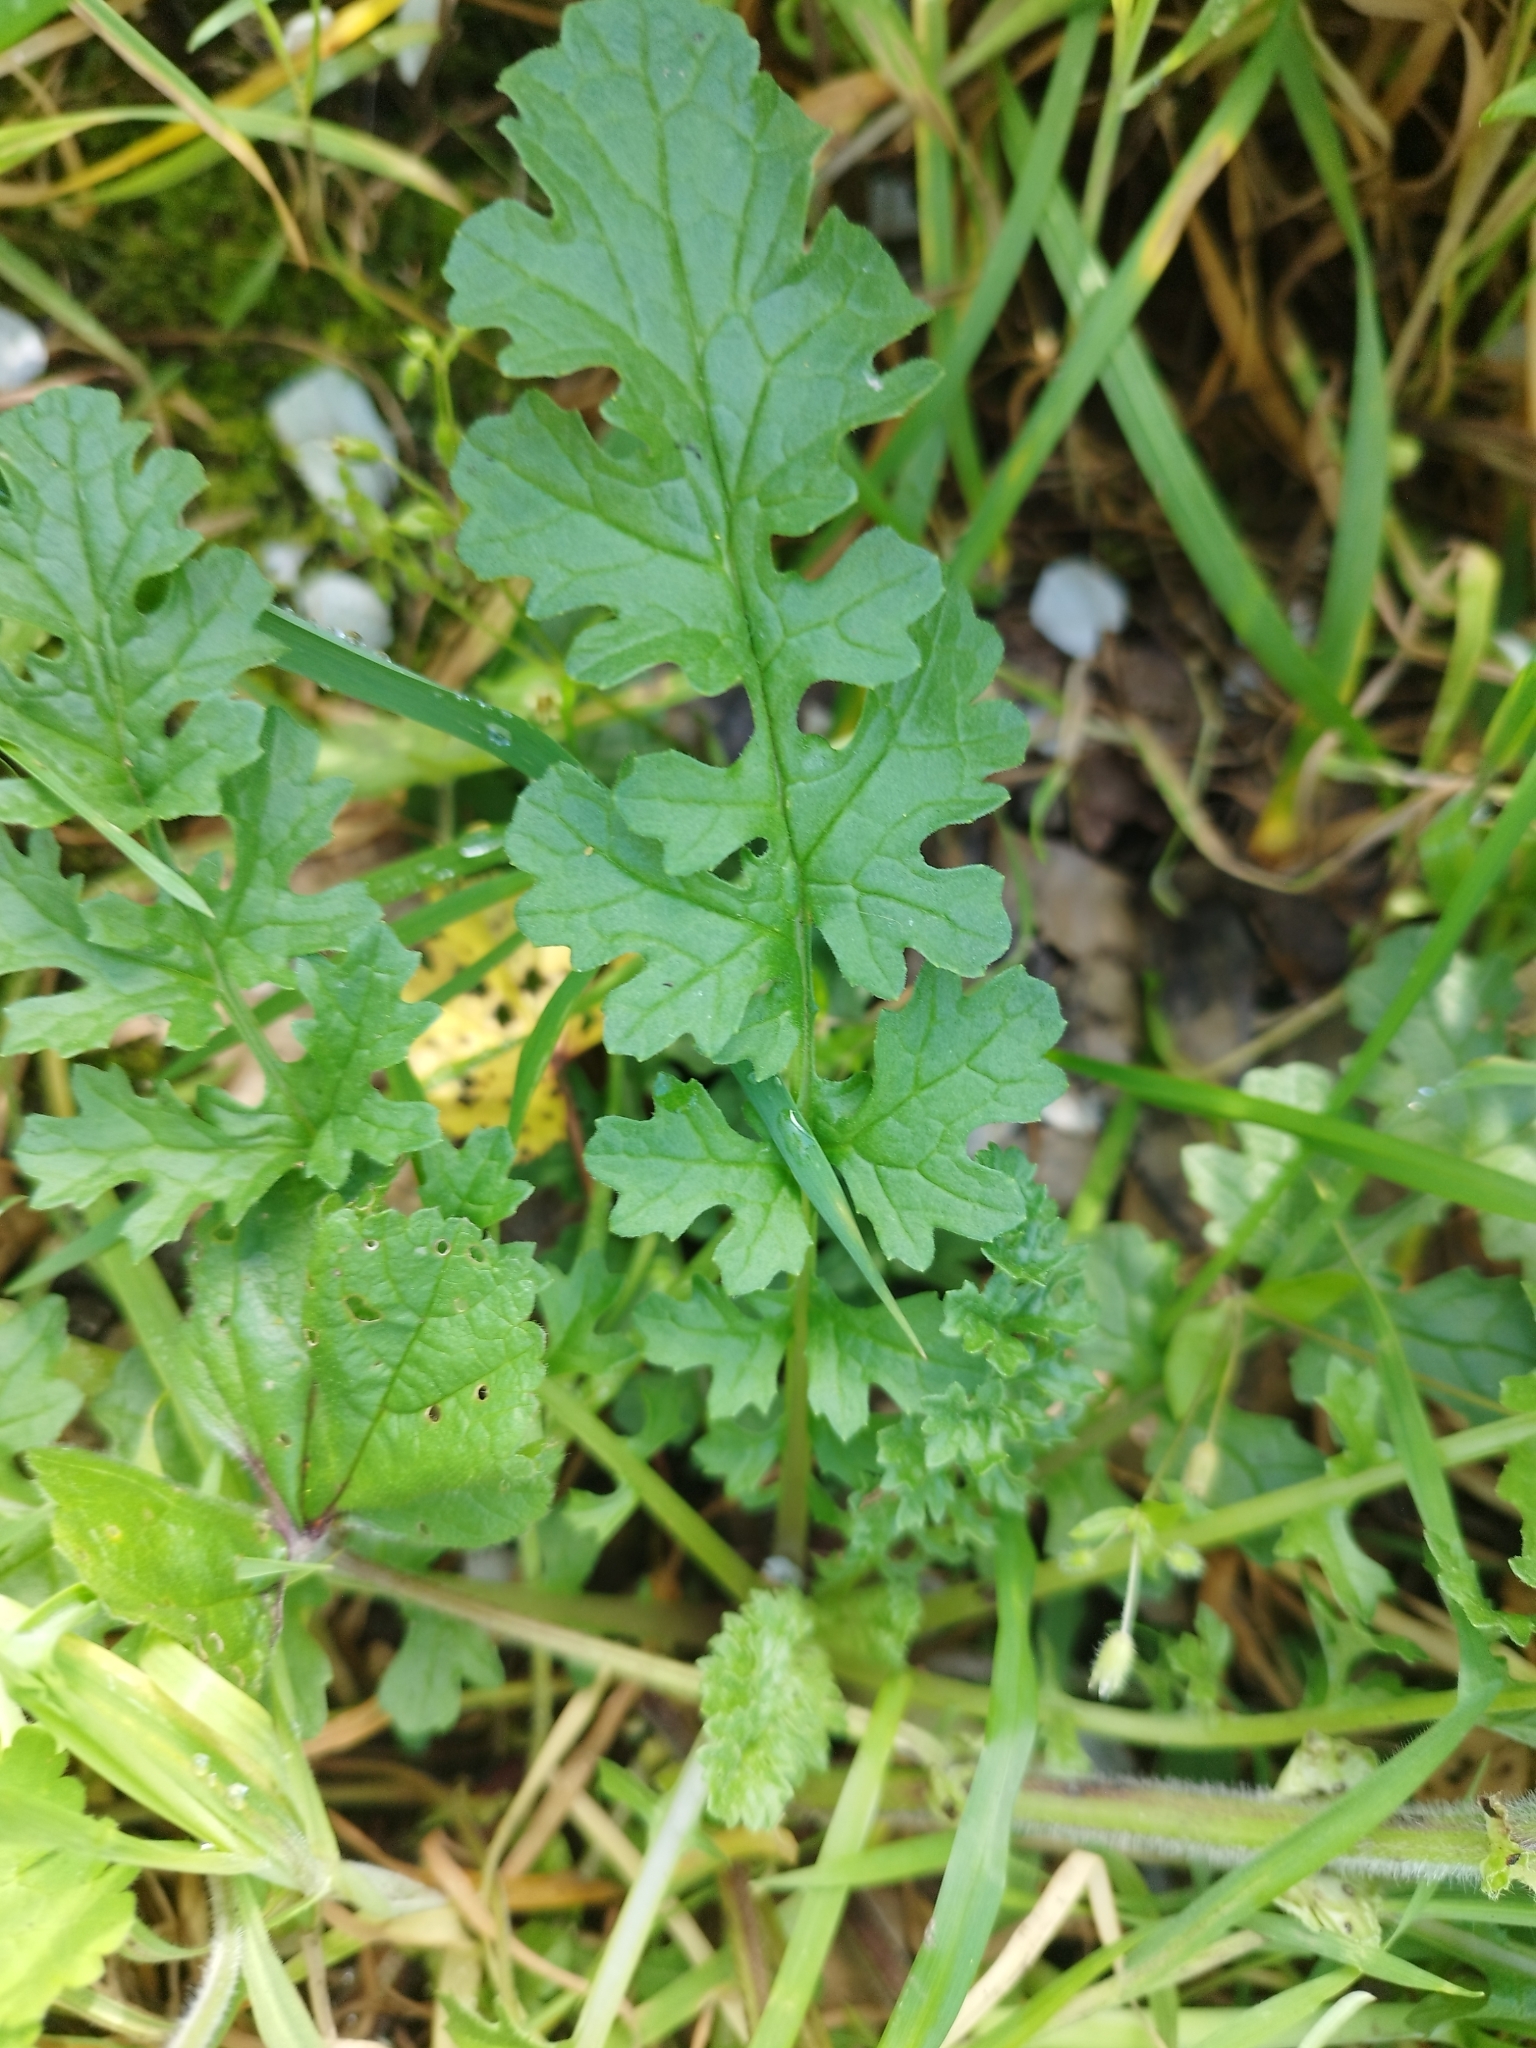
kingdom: Plantae
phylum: Tracheophyta
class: Magnoliopsida
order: Asterales
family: Asteraceae
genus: Jacobaea
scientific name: Jacobaea vulgaris
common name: Stinking willie
